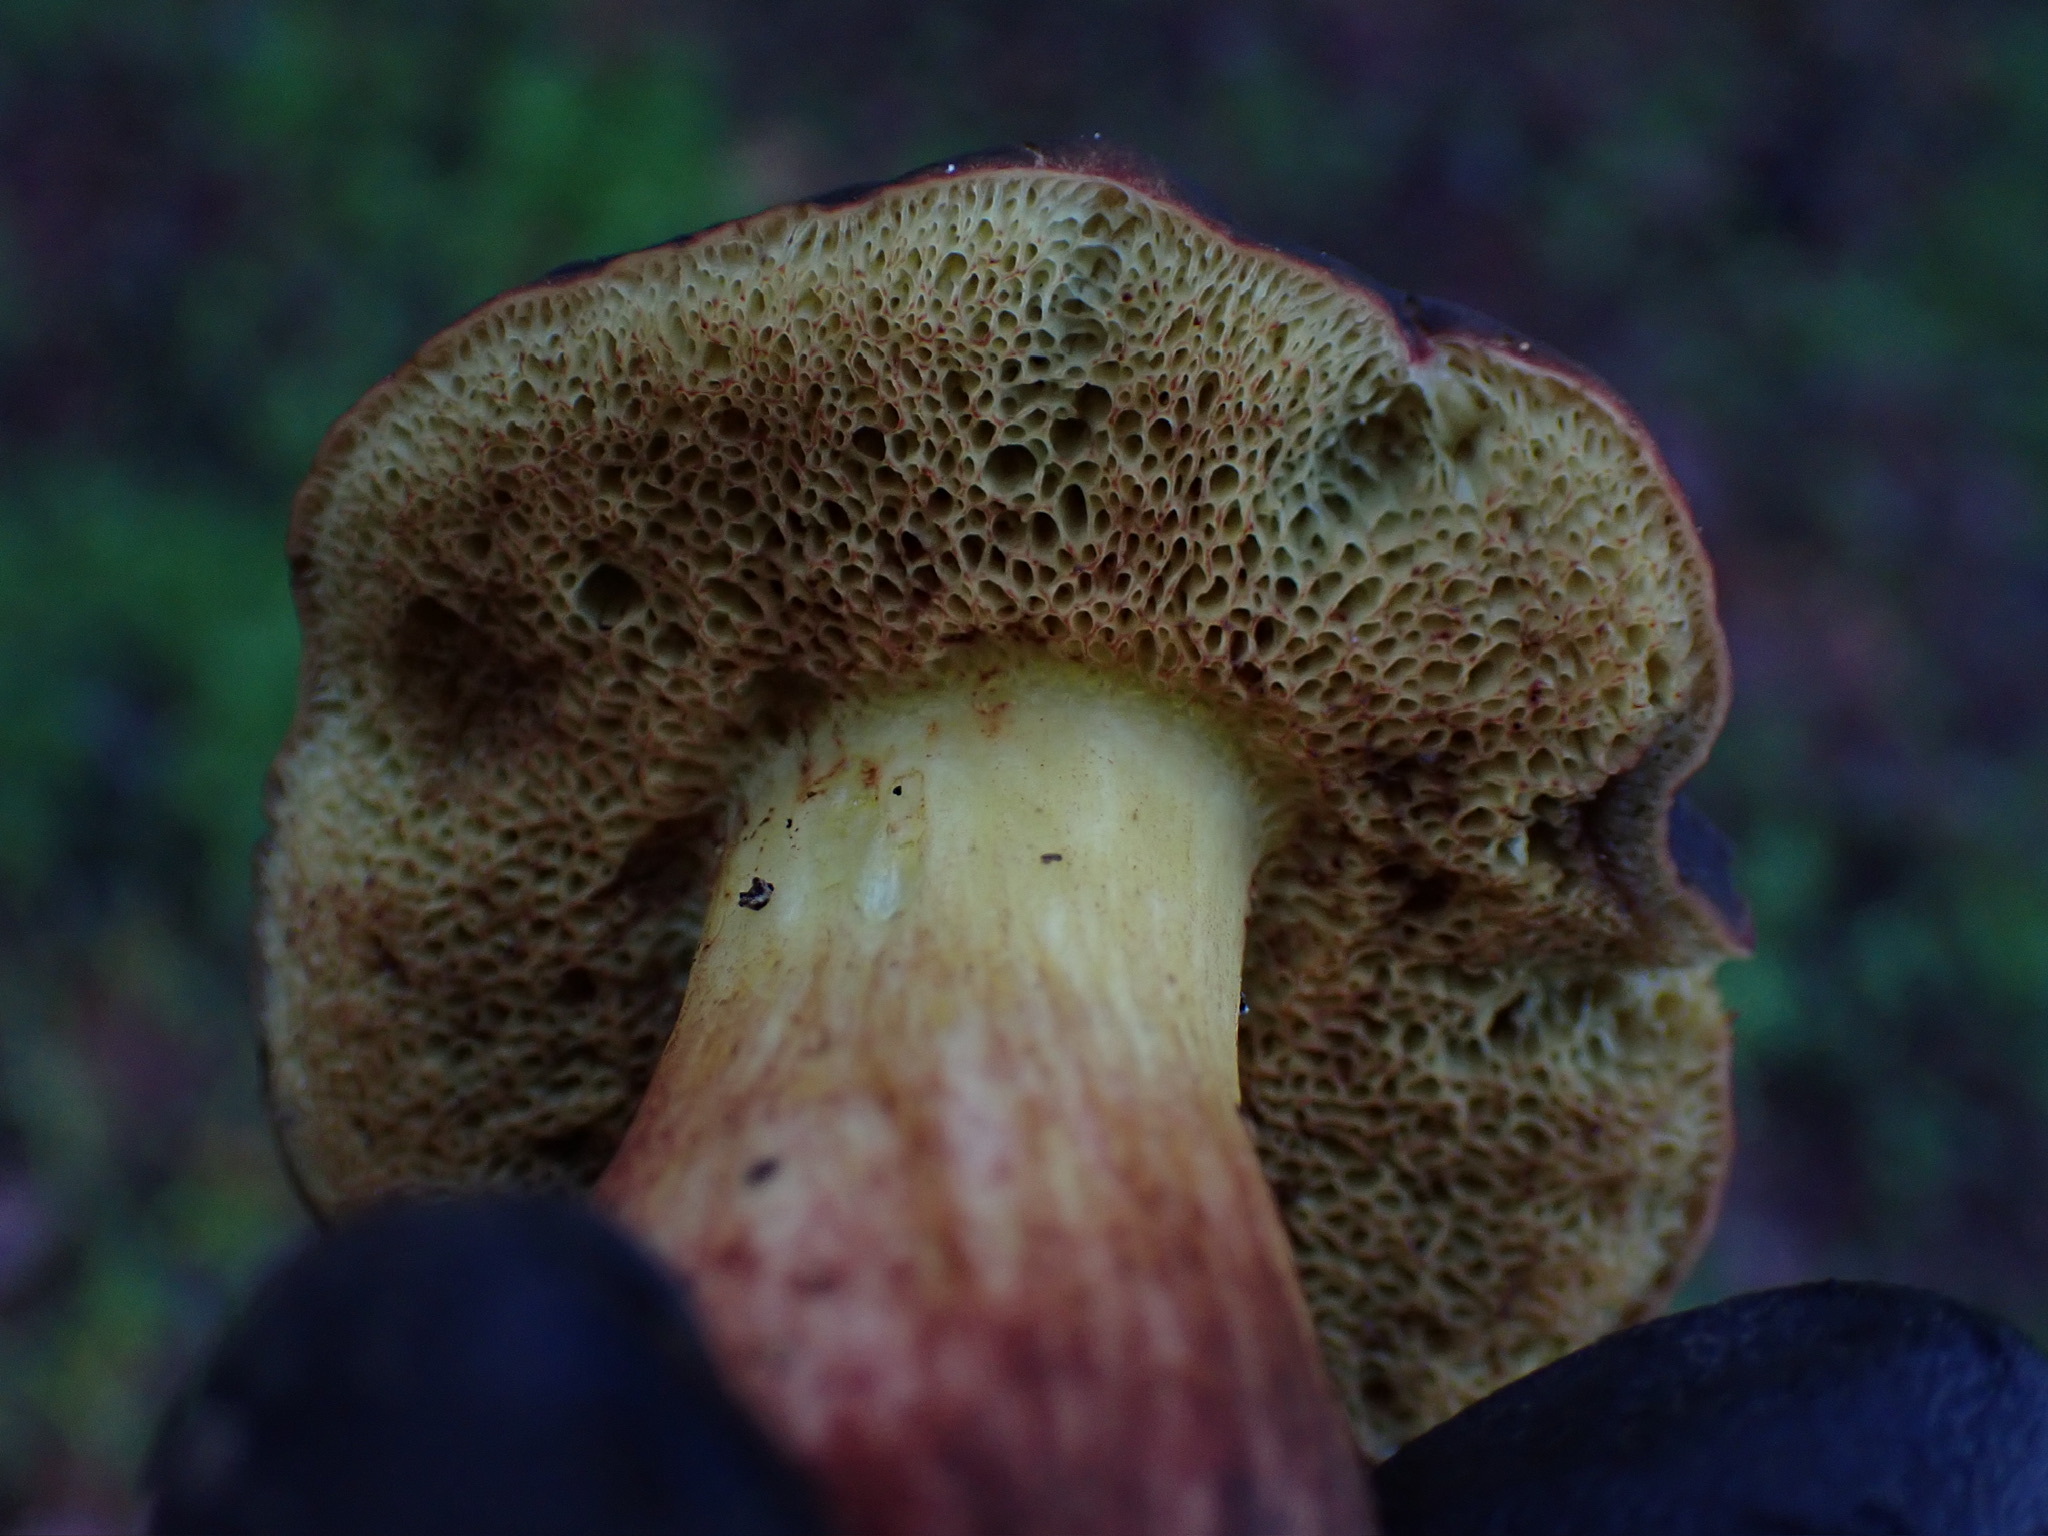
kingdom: Fungi
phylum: Basidiomycota
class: Agaricomycetes
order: Boletales
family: Boletaceae
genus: Xerocomellus
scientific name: Xerocomellus dryophilus
